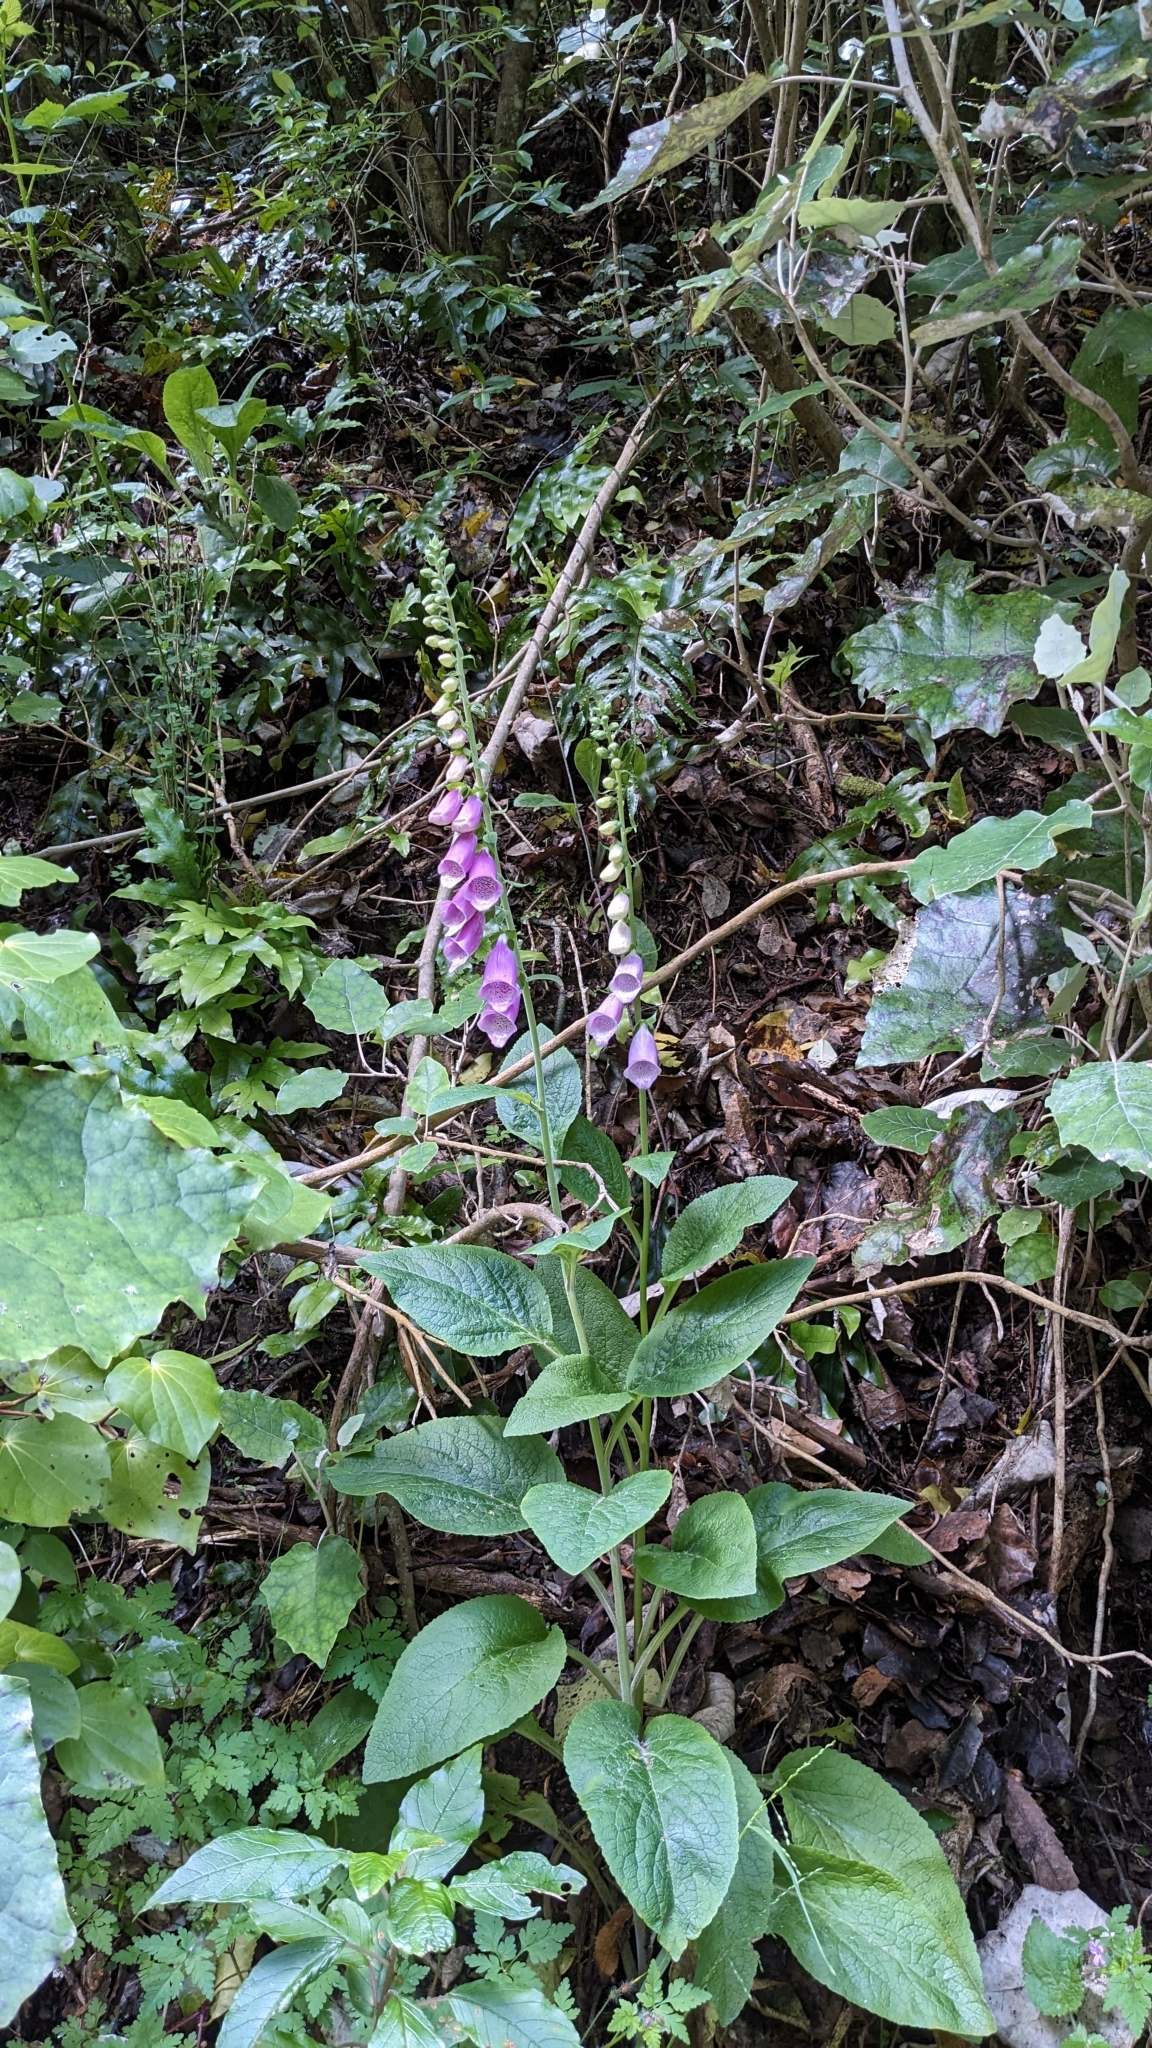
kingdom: Plantae
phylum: Tracheophyta
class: Magnoliopsida
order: Lamiales
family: Plantaginaceae
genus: Digitalis
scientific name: Digitalis purpurea
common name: Foxglove
